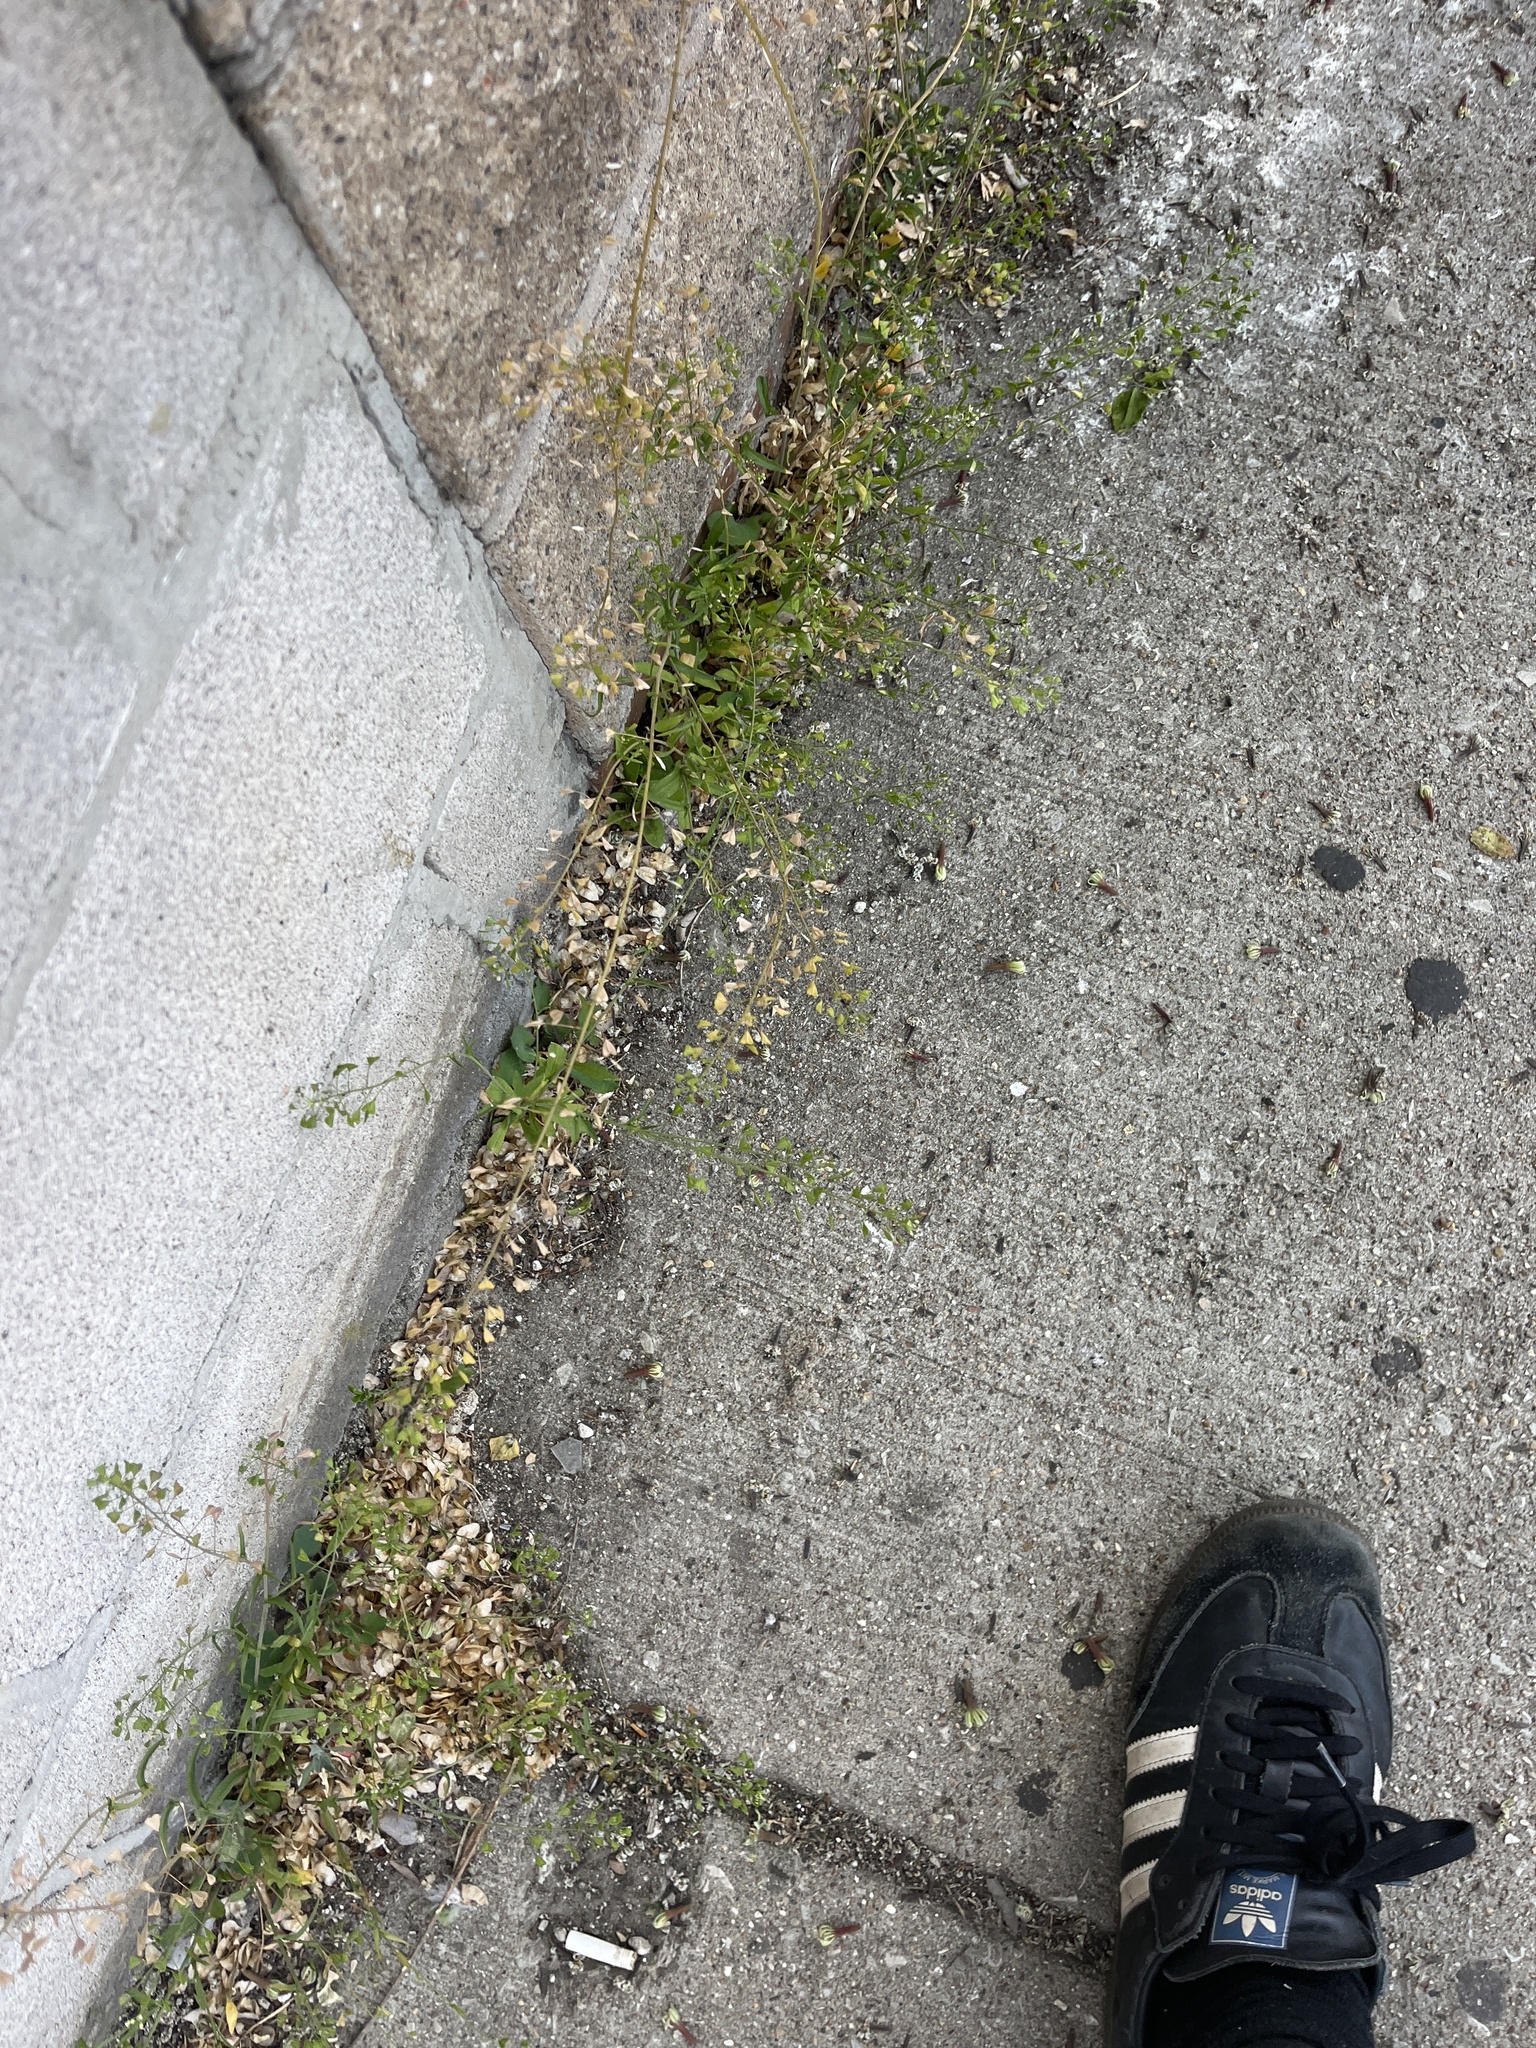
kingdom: Plantae
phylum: Tracheophyta
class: Magnoliopsida
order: Brassicales
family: Brassicaceae
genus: Capsella
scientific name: Capsella bursa-pastoris
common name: Shepherd's purse
